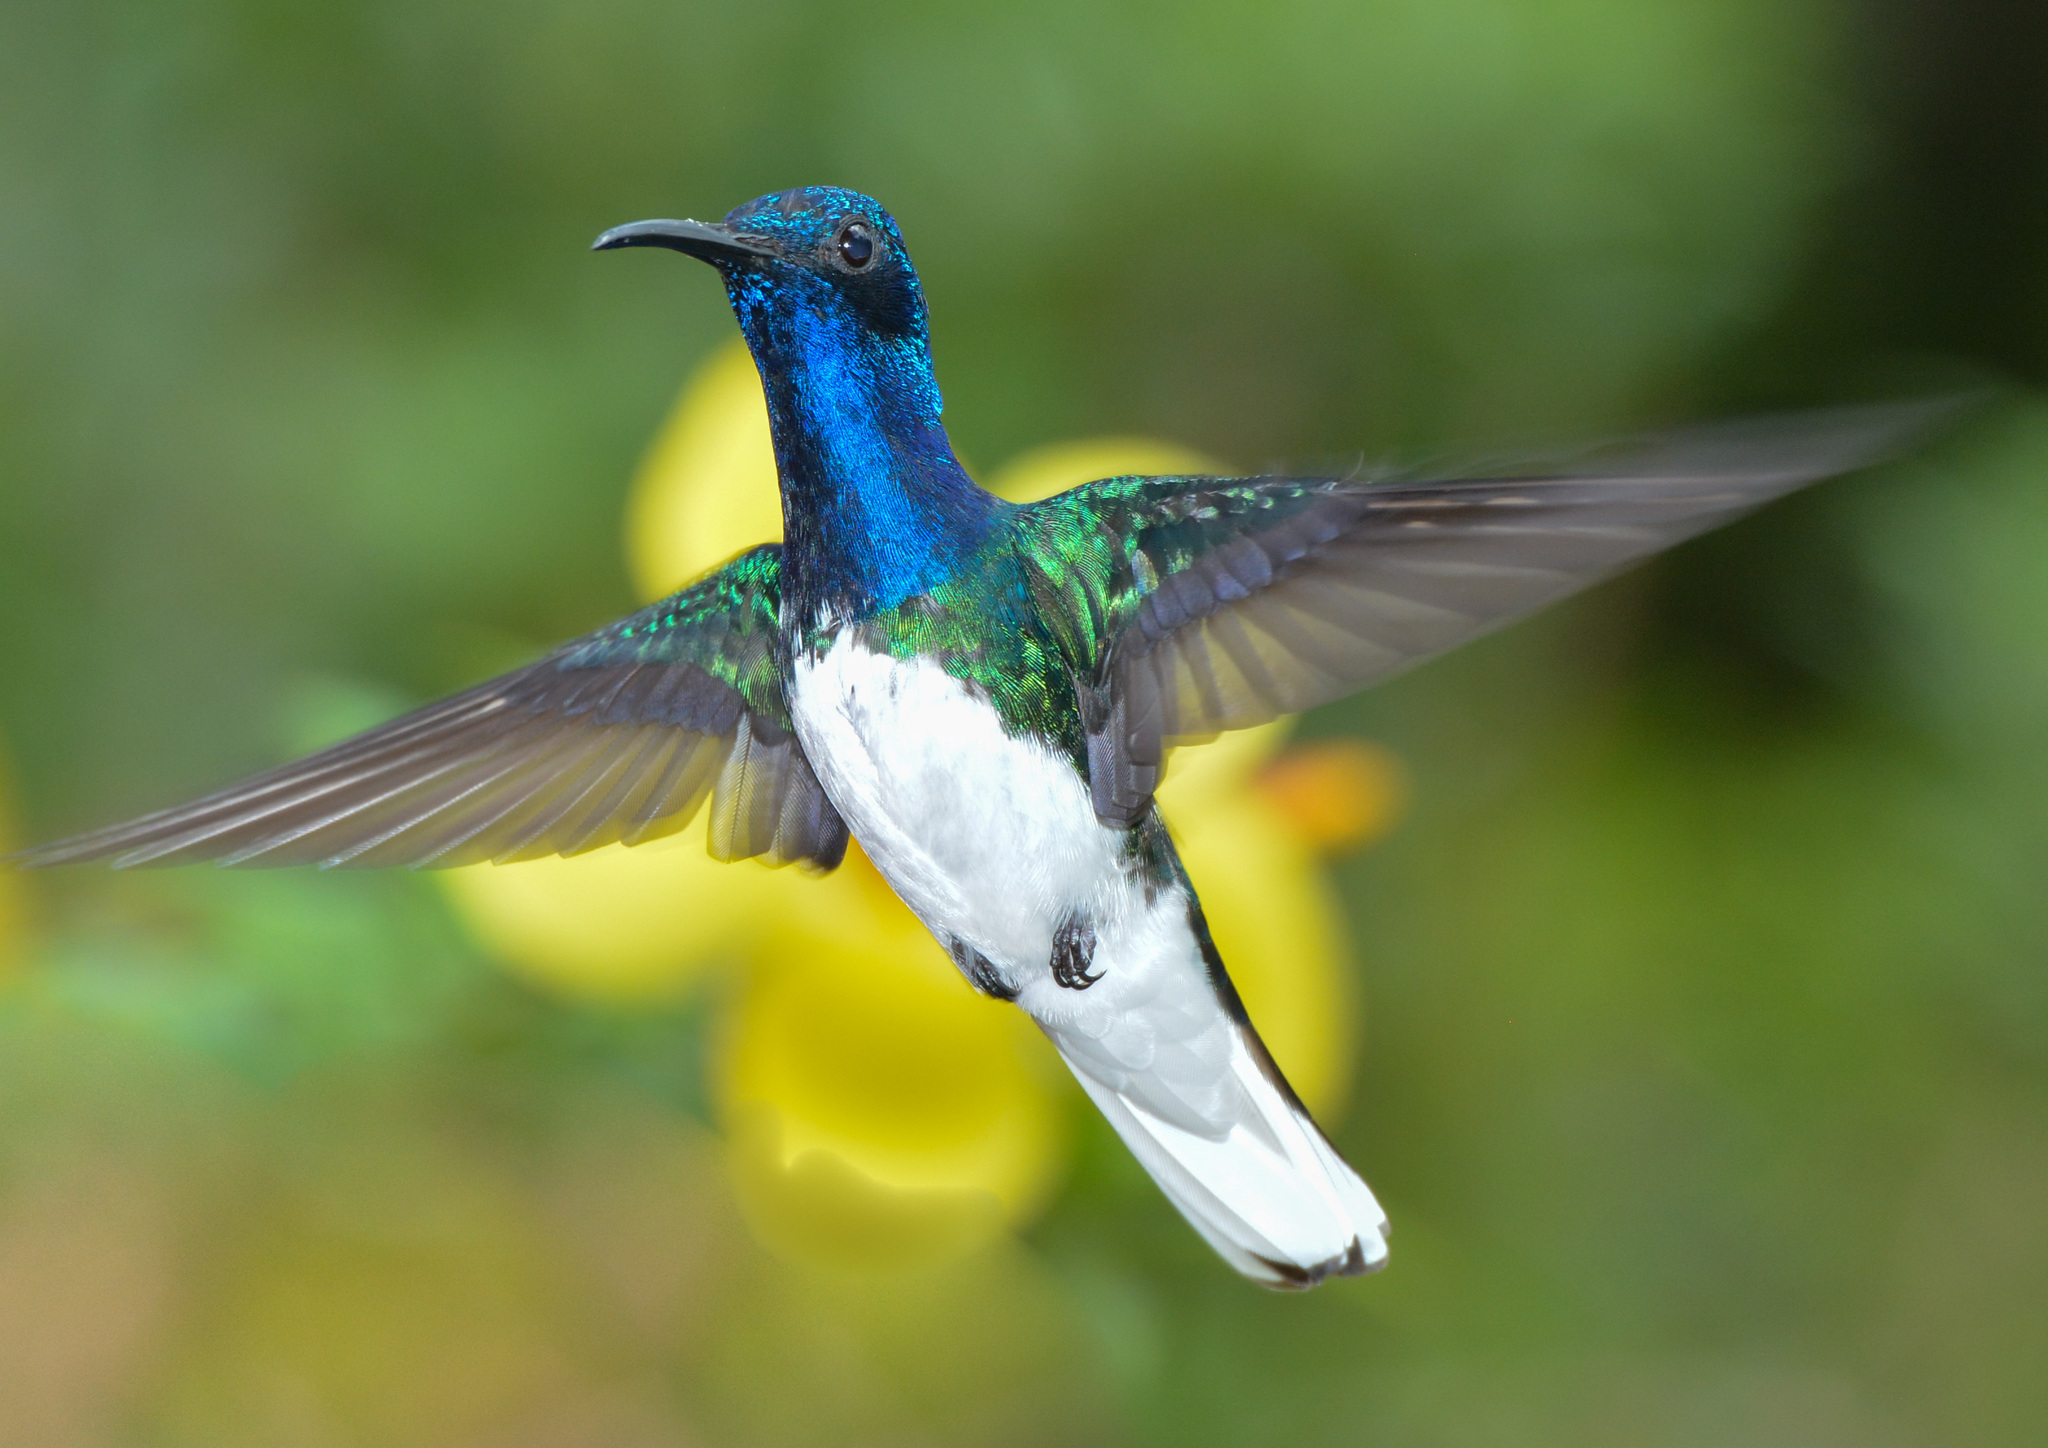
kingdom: Animalia
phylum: Chordata
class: Aves
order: Apodiformes
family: Trochilidae
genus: Florisuga
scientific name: Florisuga mellivora
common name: White-necked jacobin
